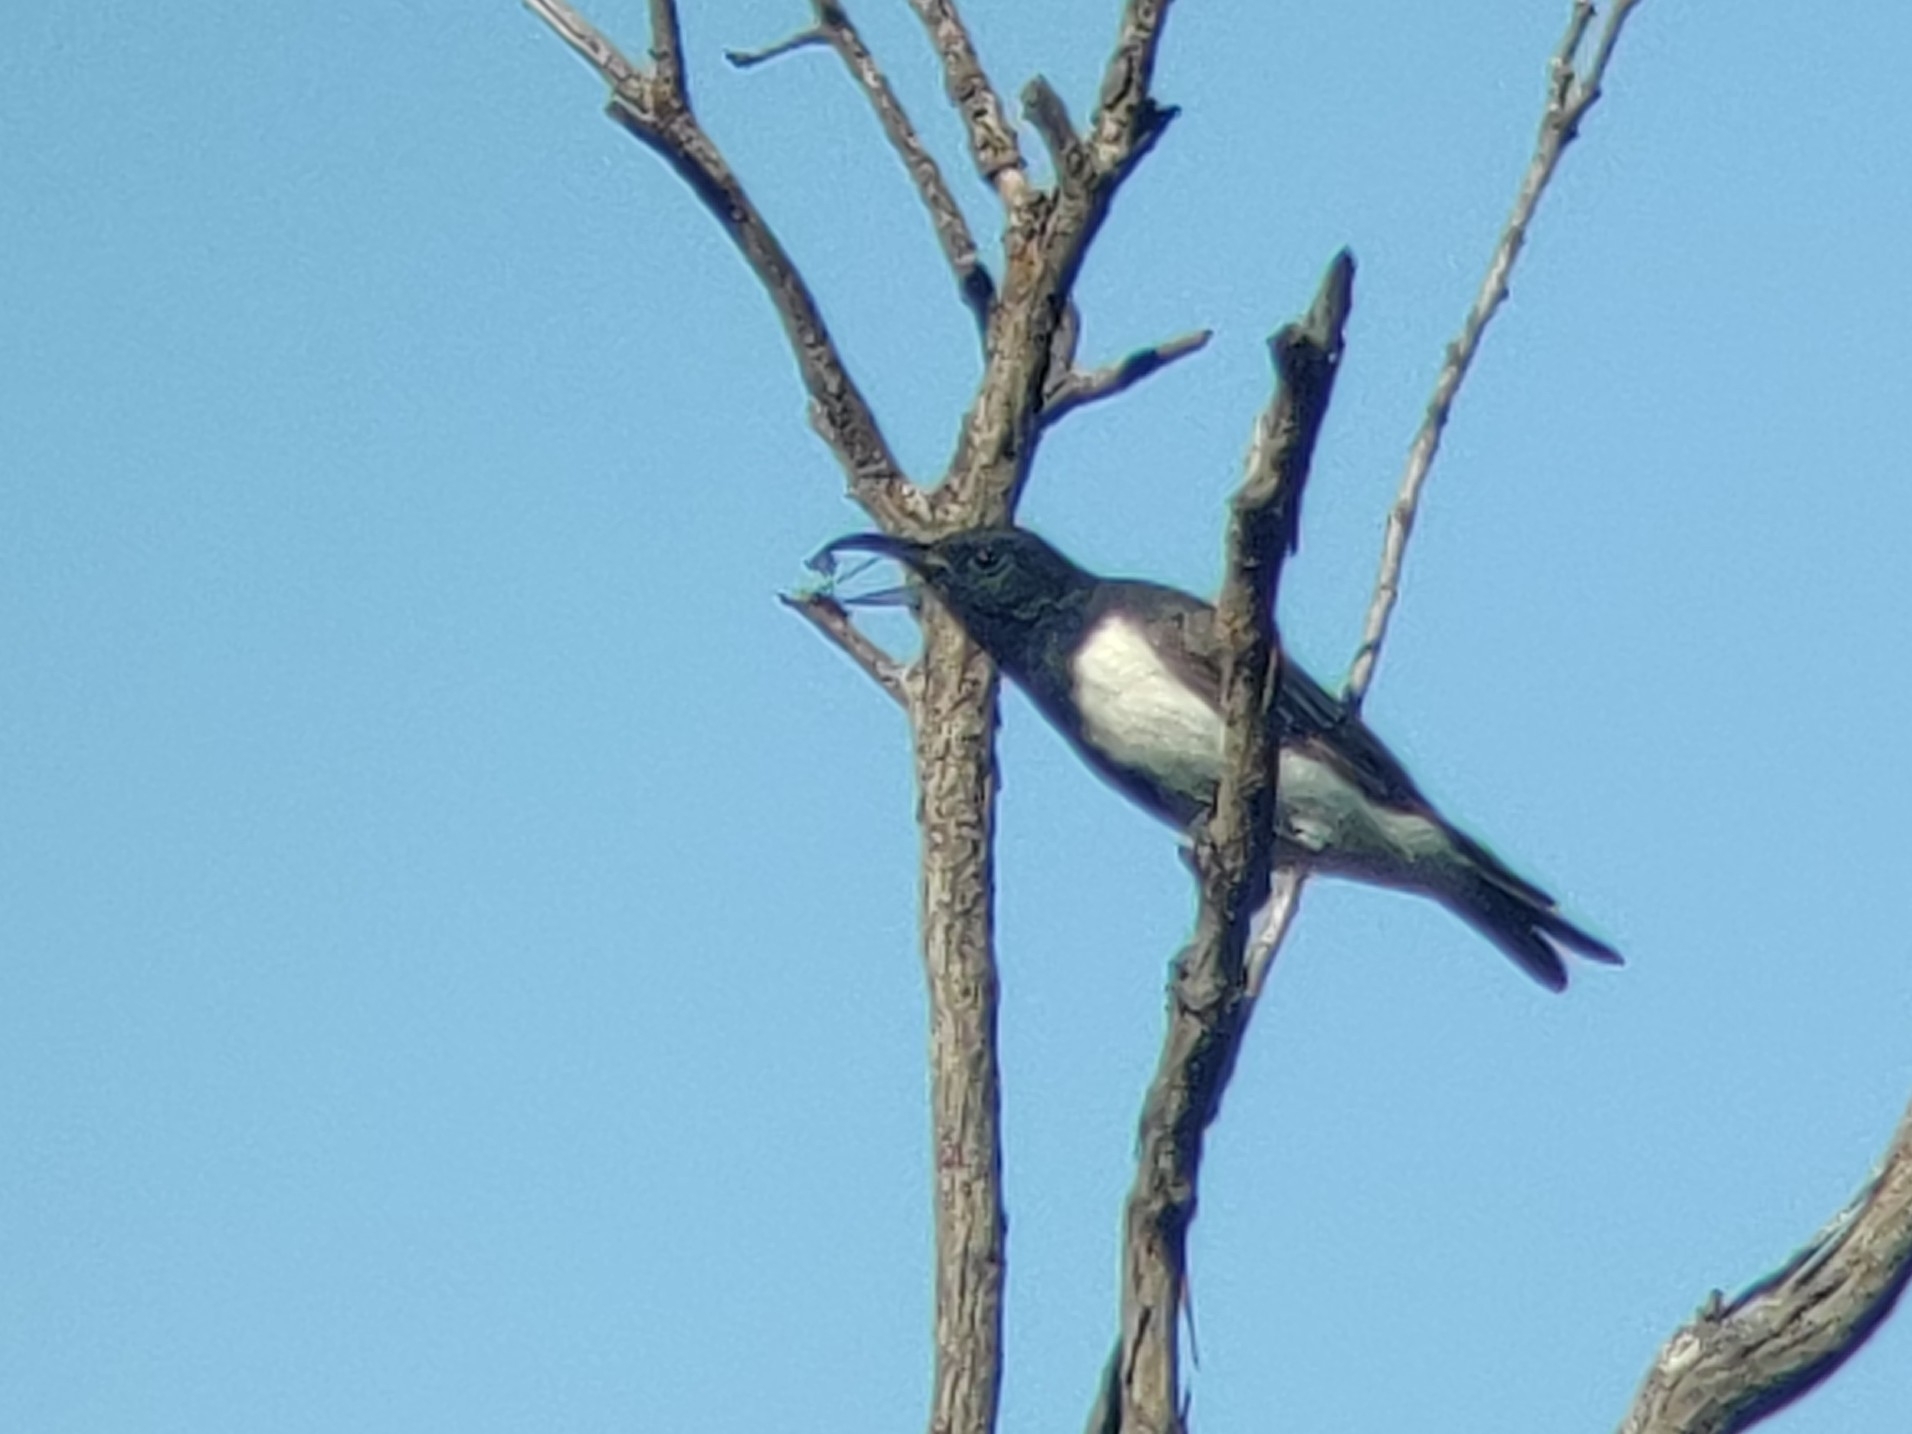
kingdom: Animalia
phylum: Chordata
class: Aves
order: Passeriformes
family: Meliphagidae
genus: Sugomel
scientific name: Sugomel niger
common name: Black honeyeater
